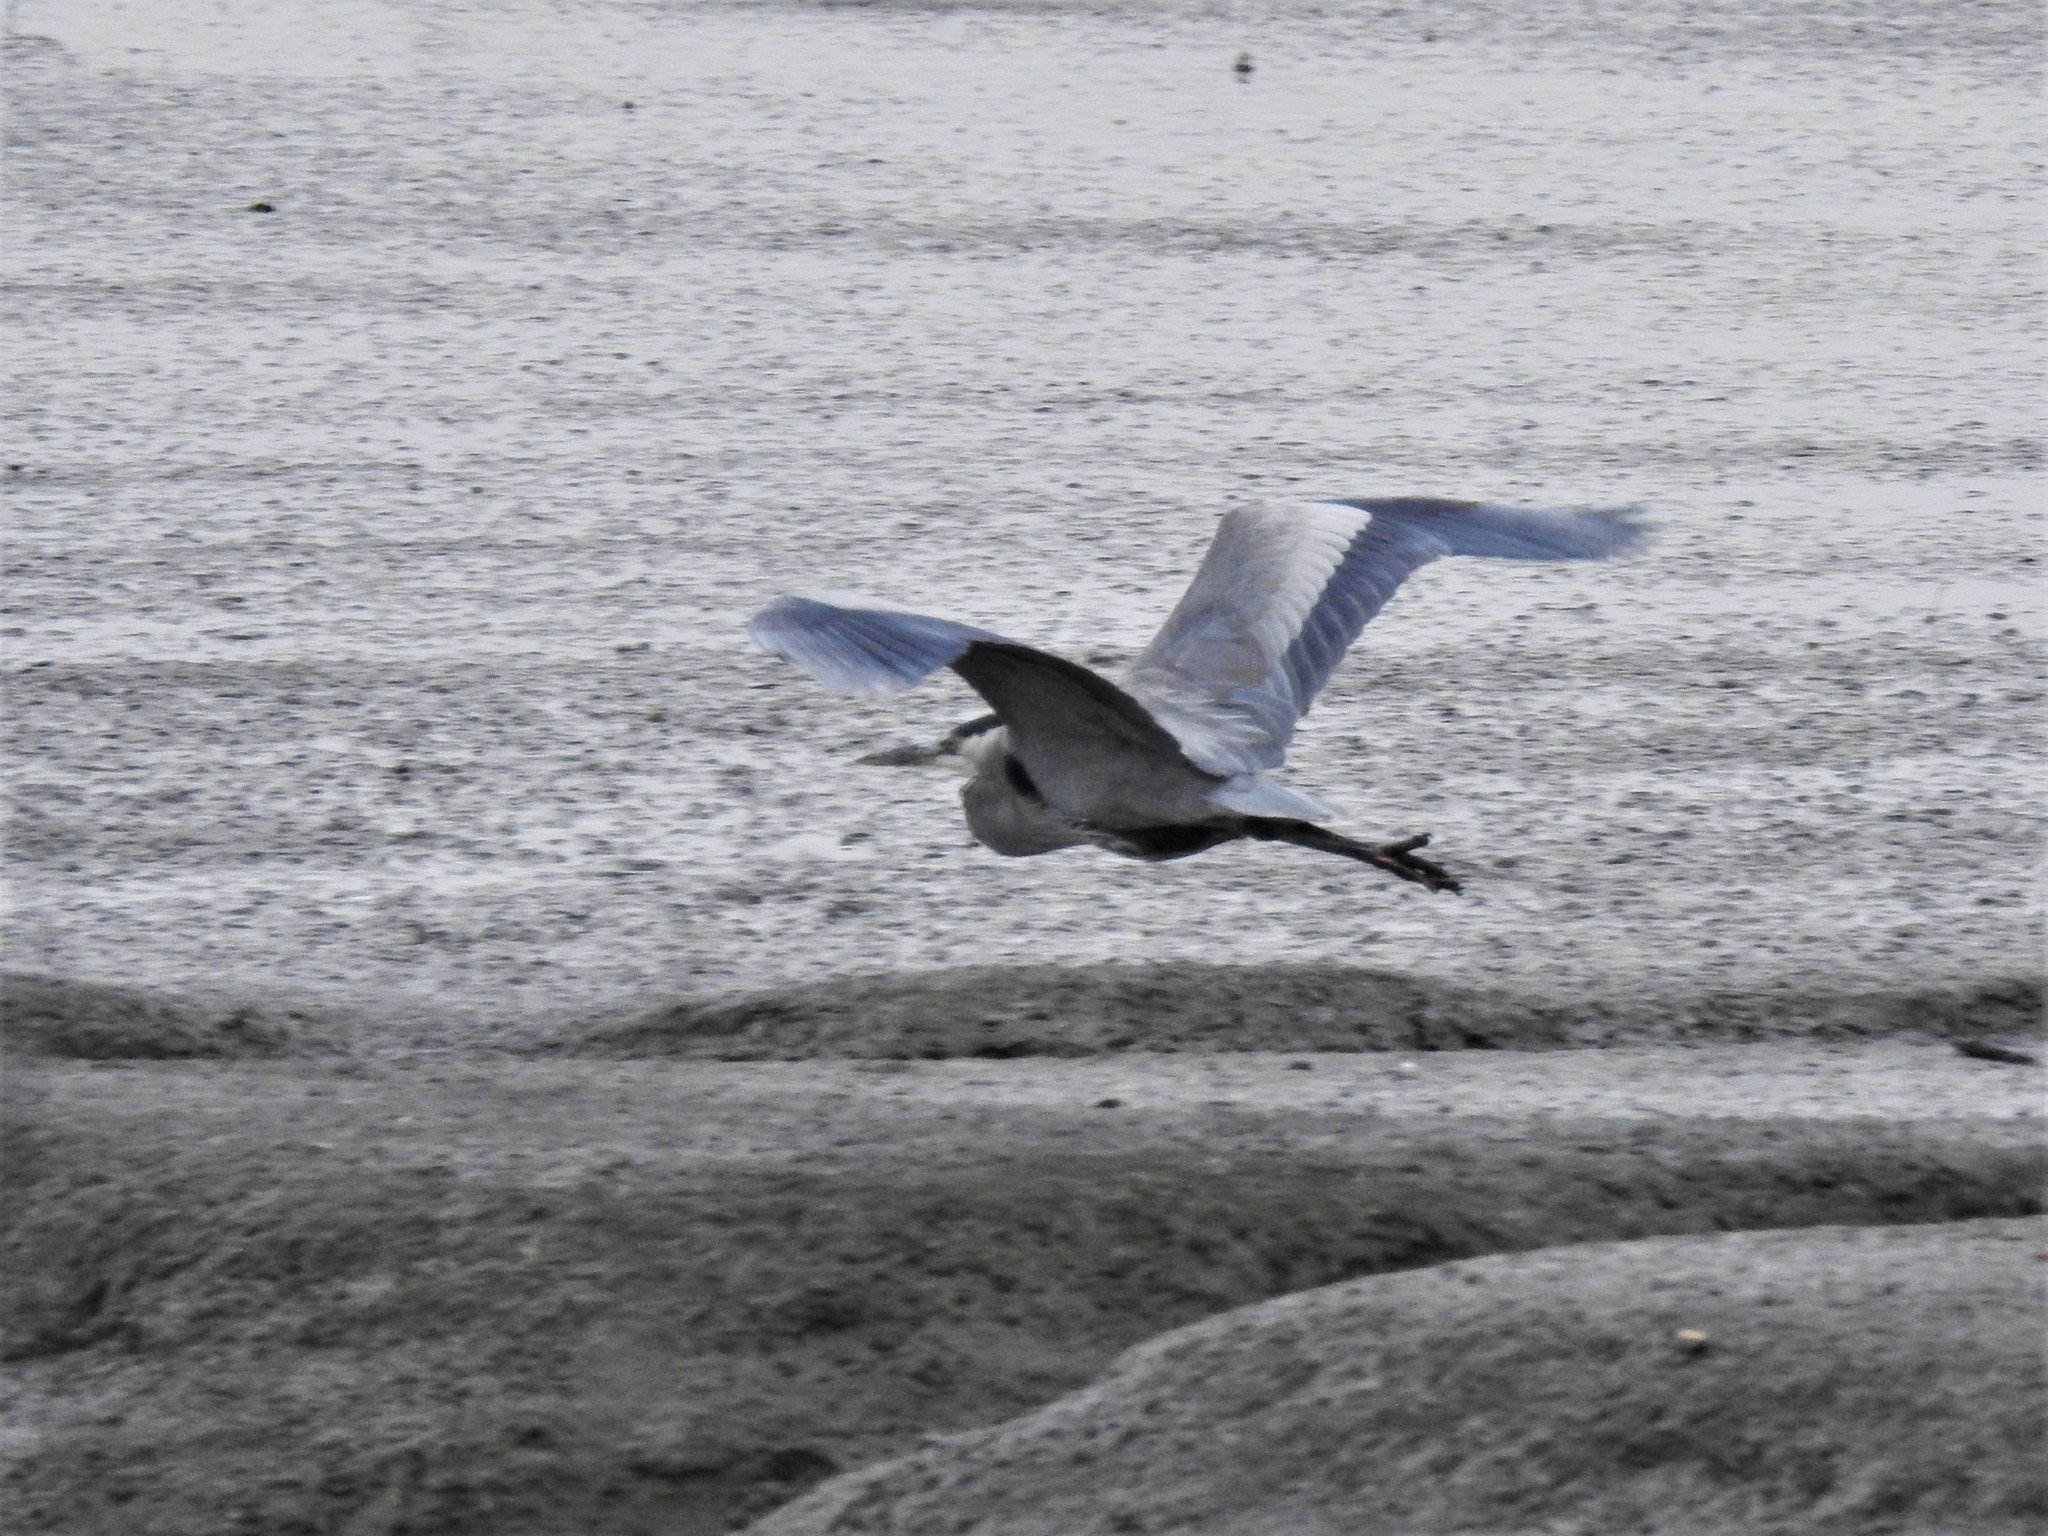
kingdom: Animalia
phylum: Chordata
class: Aves
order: Pelecaniformes
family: Ardeidae
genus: Ardea
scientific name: Ardea herodias
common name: Great blue heron
